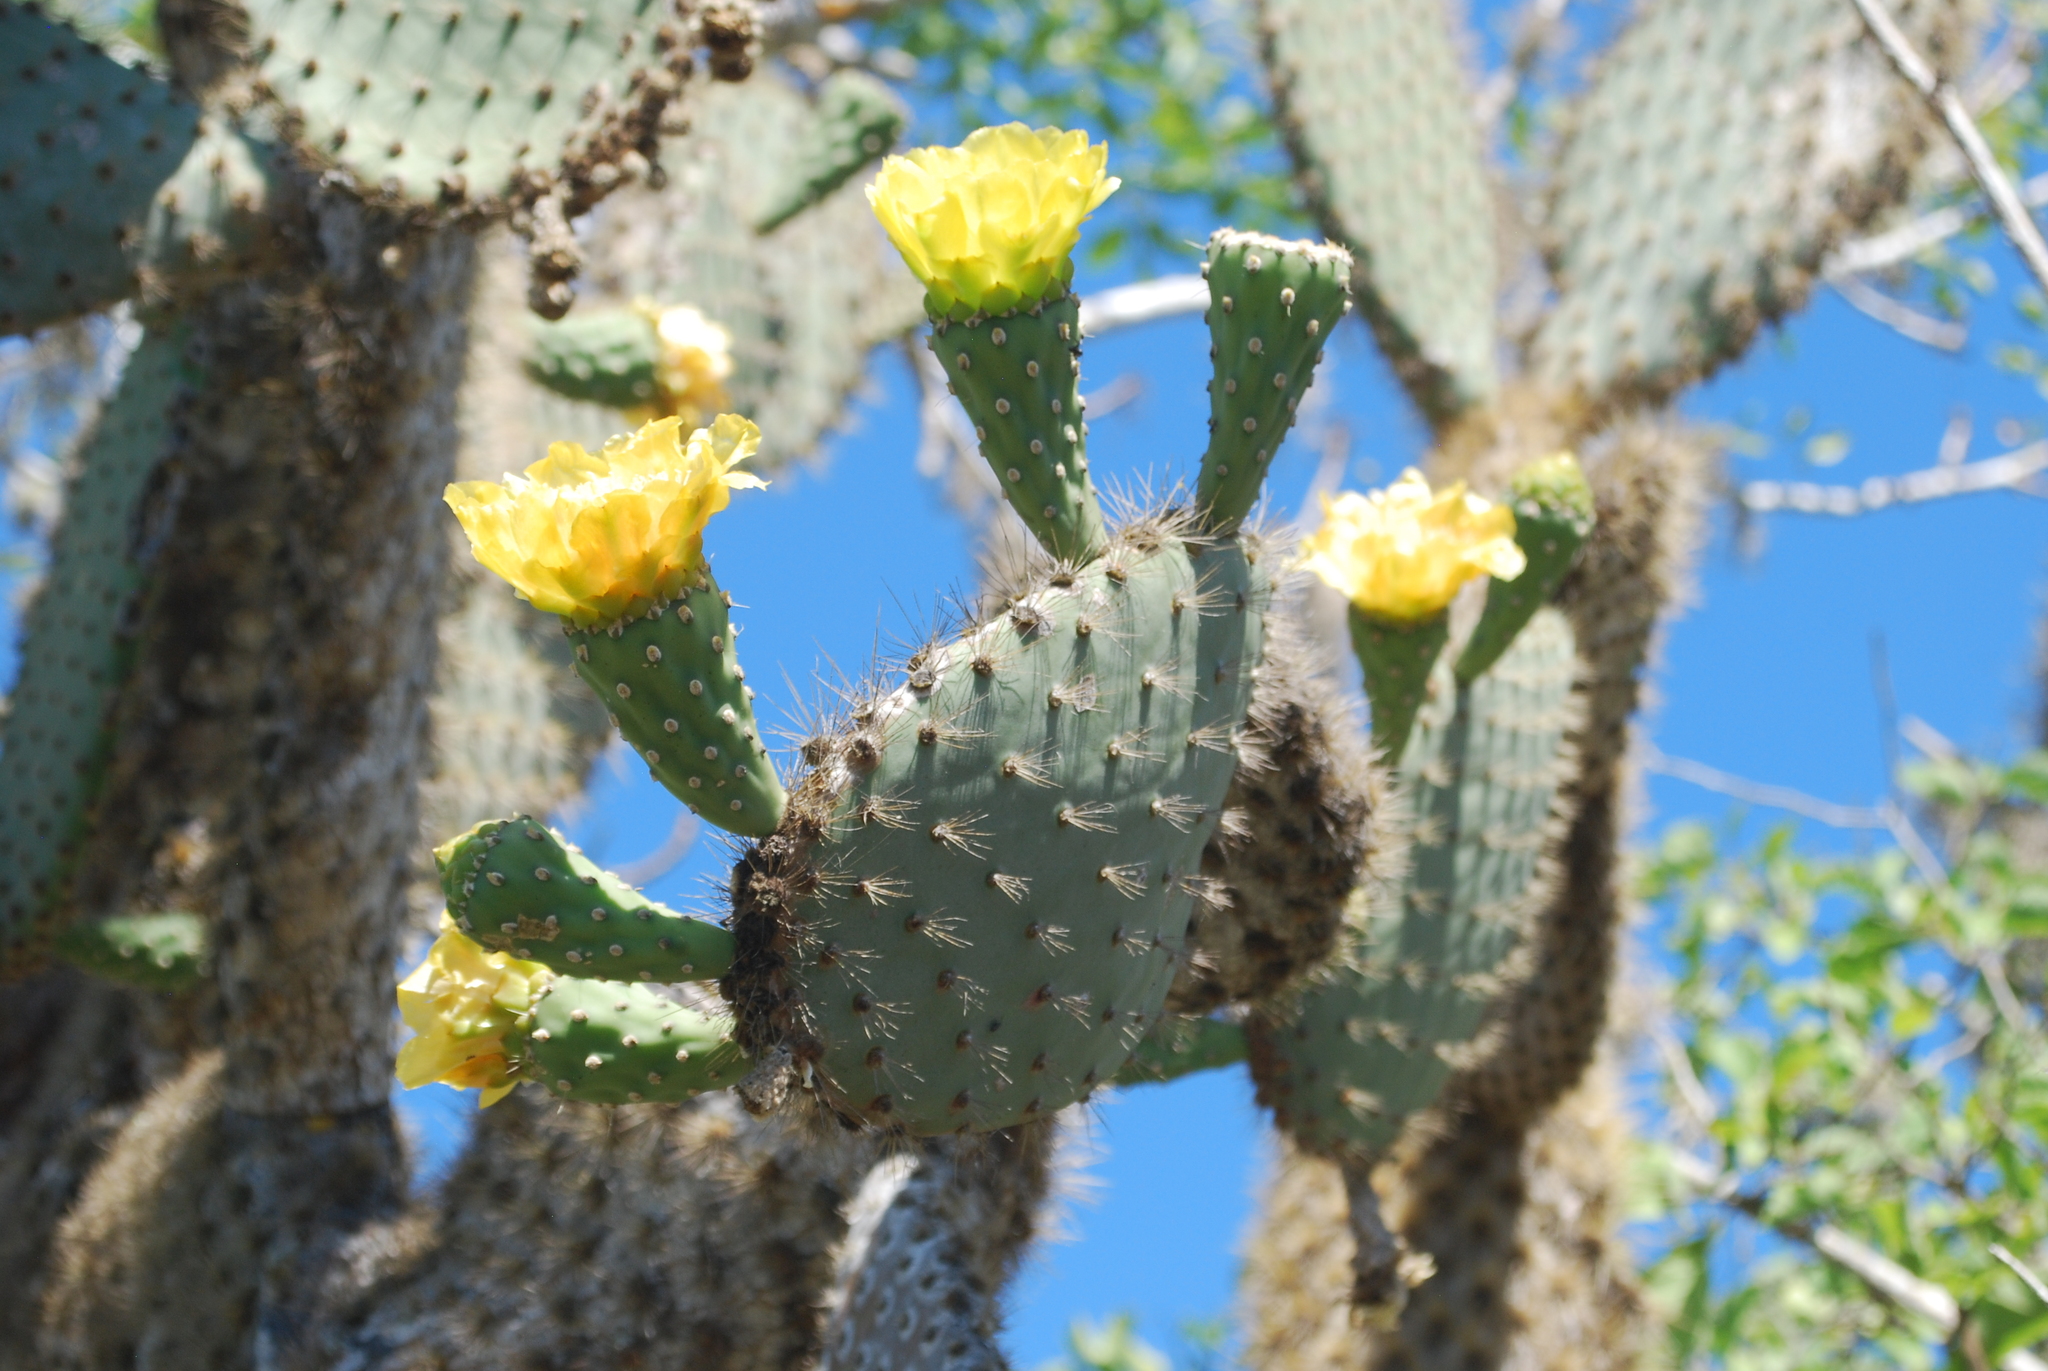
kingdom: Plantae
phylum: Tracheophyta
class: Magnoliopsida
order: Caryophyllales
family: Cactaceae
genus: Opuntia
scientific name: Opuntia galapageia
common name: Galápagos prickly pear
